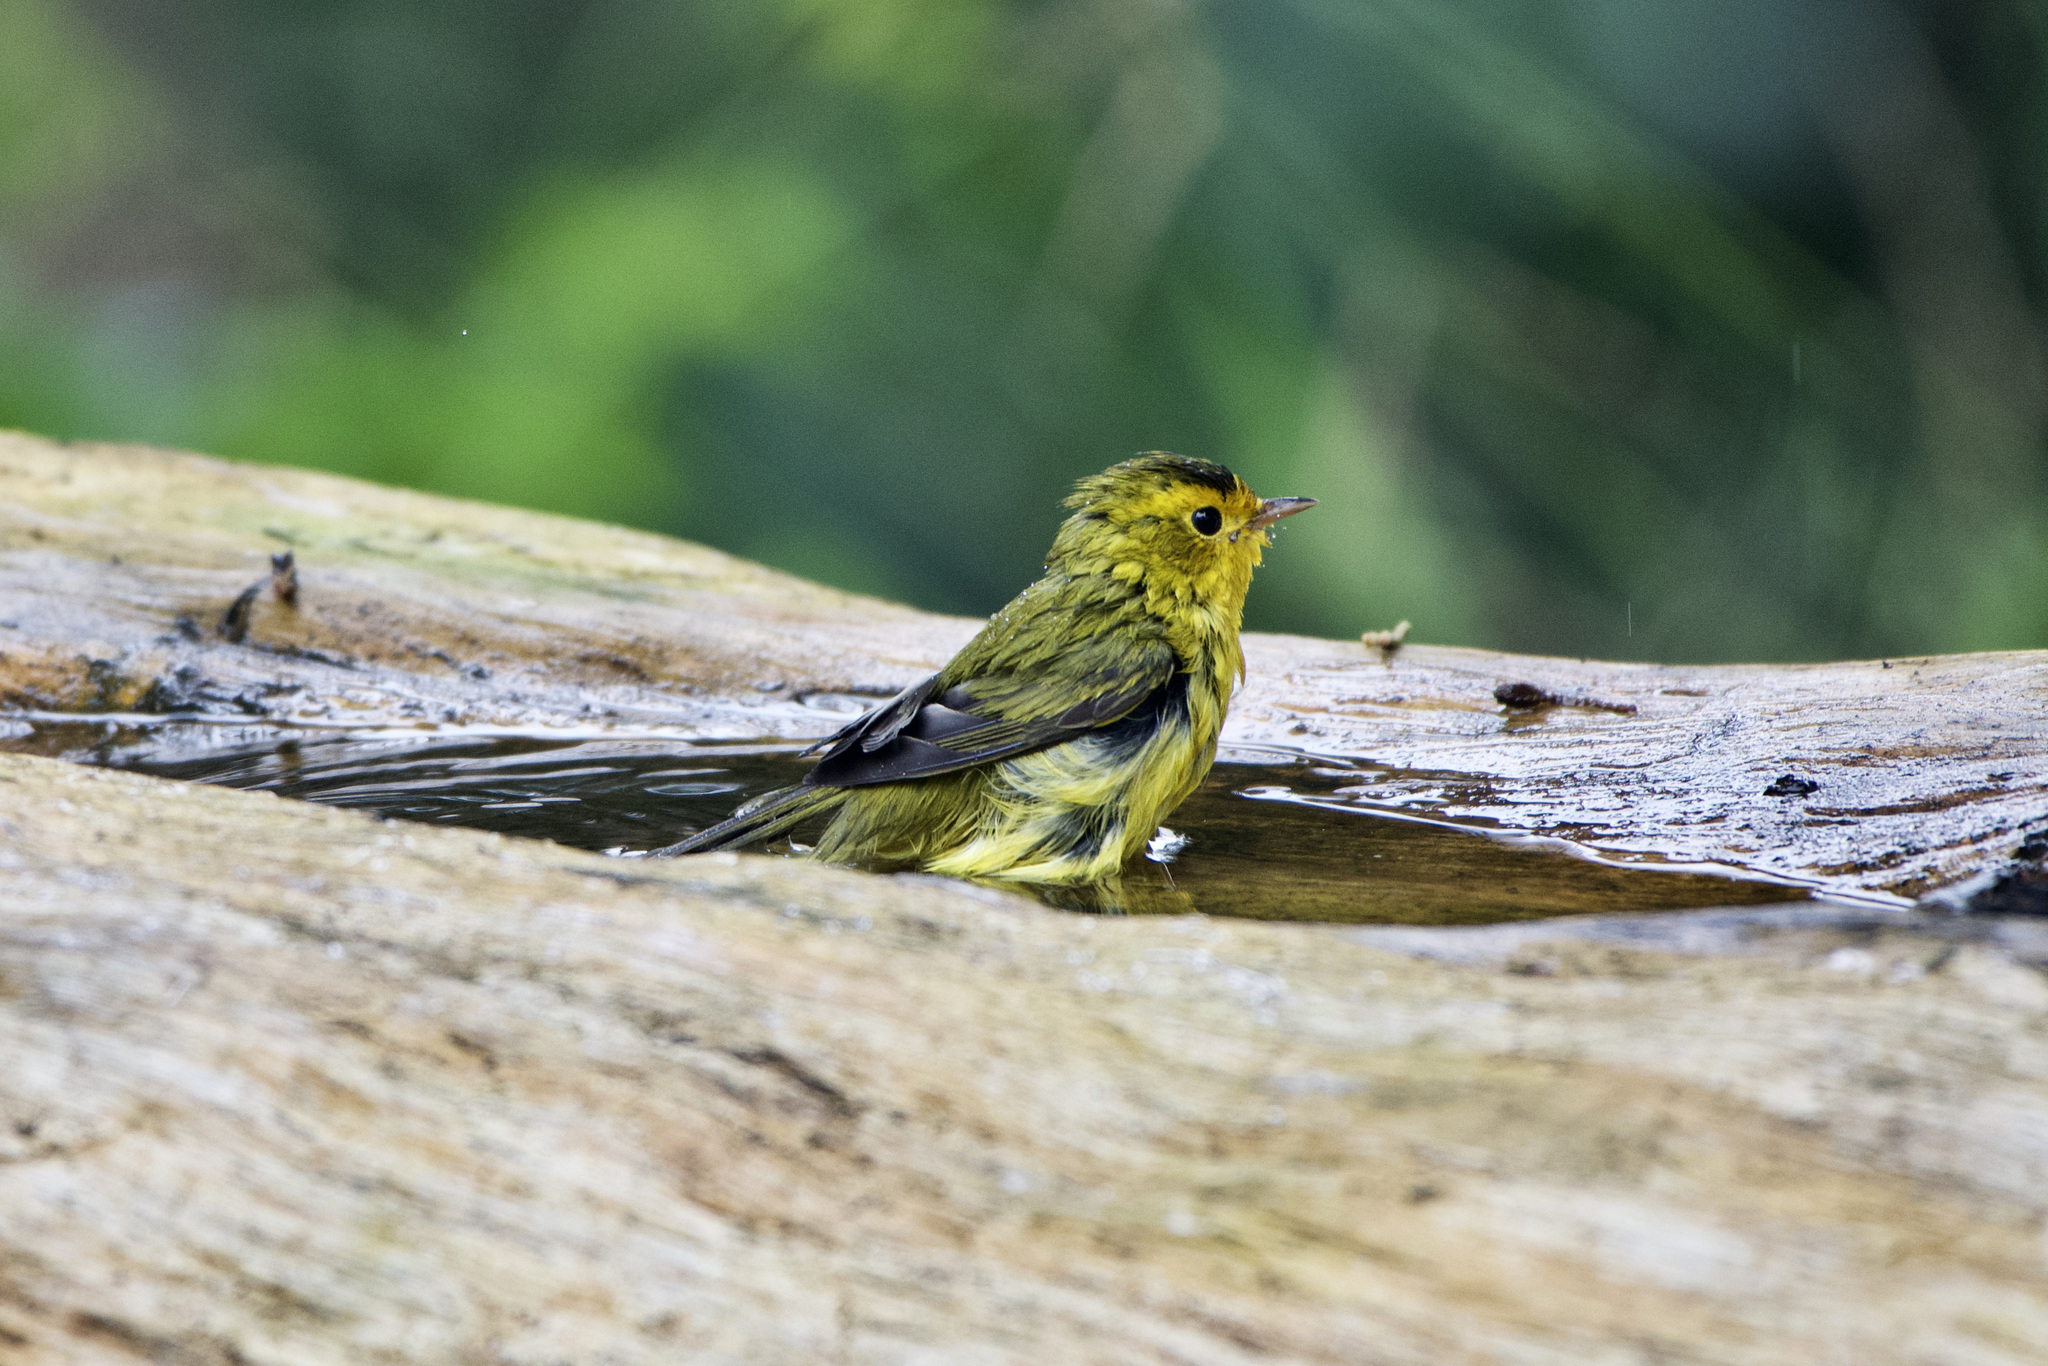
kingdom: Animalia
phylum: Chordata
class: Aves
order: Passeriformes
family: Parulidae
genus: Cardellina
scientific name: Cardellina pusilla
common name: Wilson's warbler
